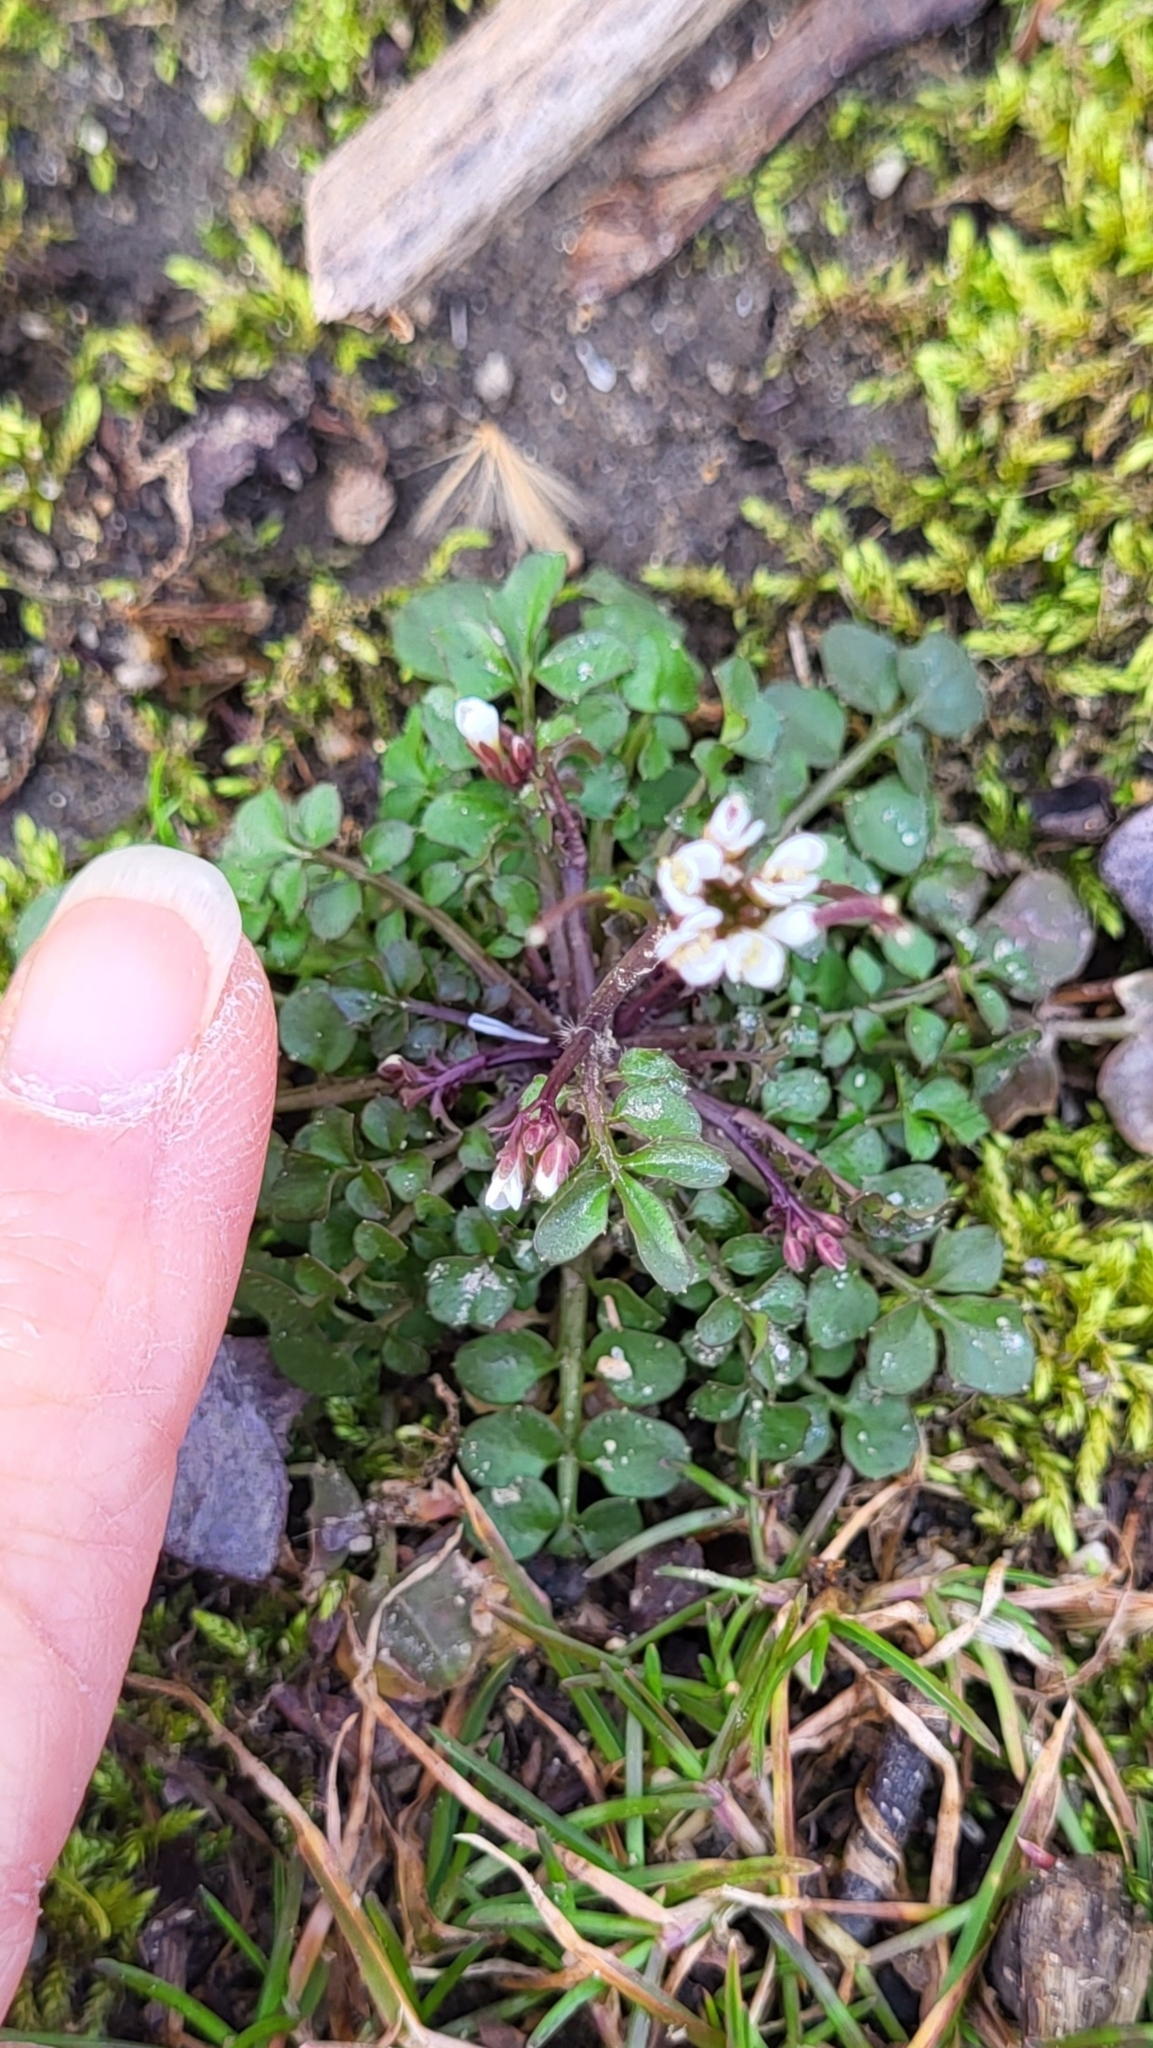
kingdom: Plantae
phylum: Tracheophyta
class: Magnoliopsida
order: Brassicales
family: Brassicaceae
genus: Cardamine
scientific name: Cardamine hirsuta
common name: Hairy bittercress
